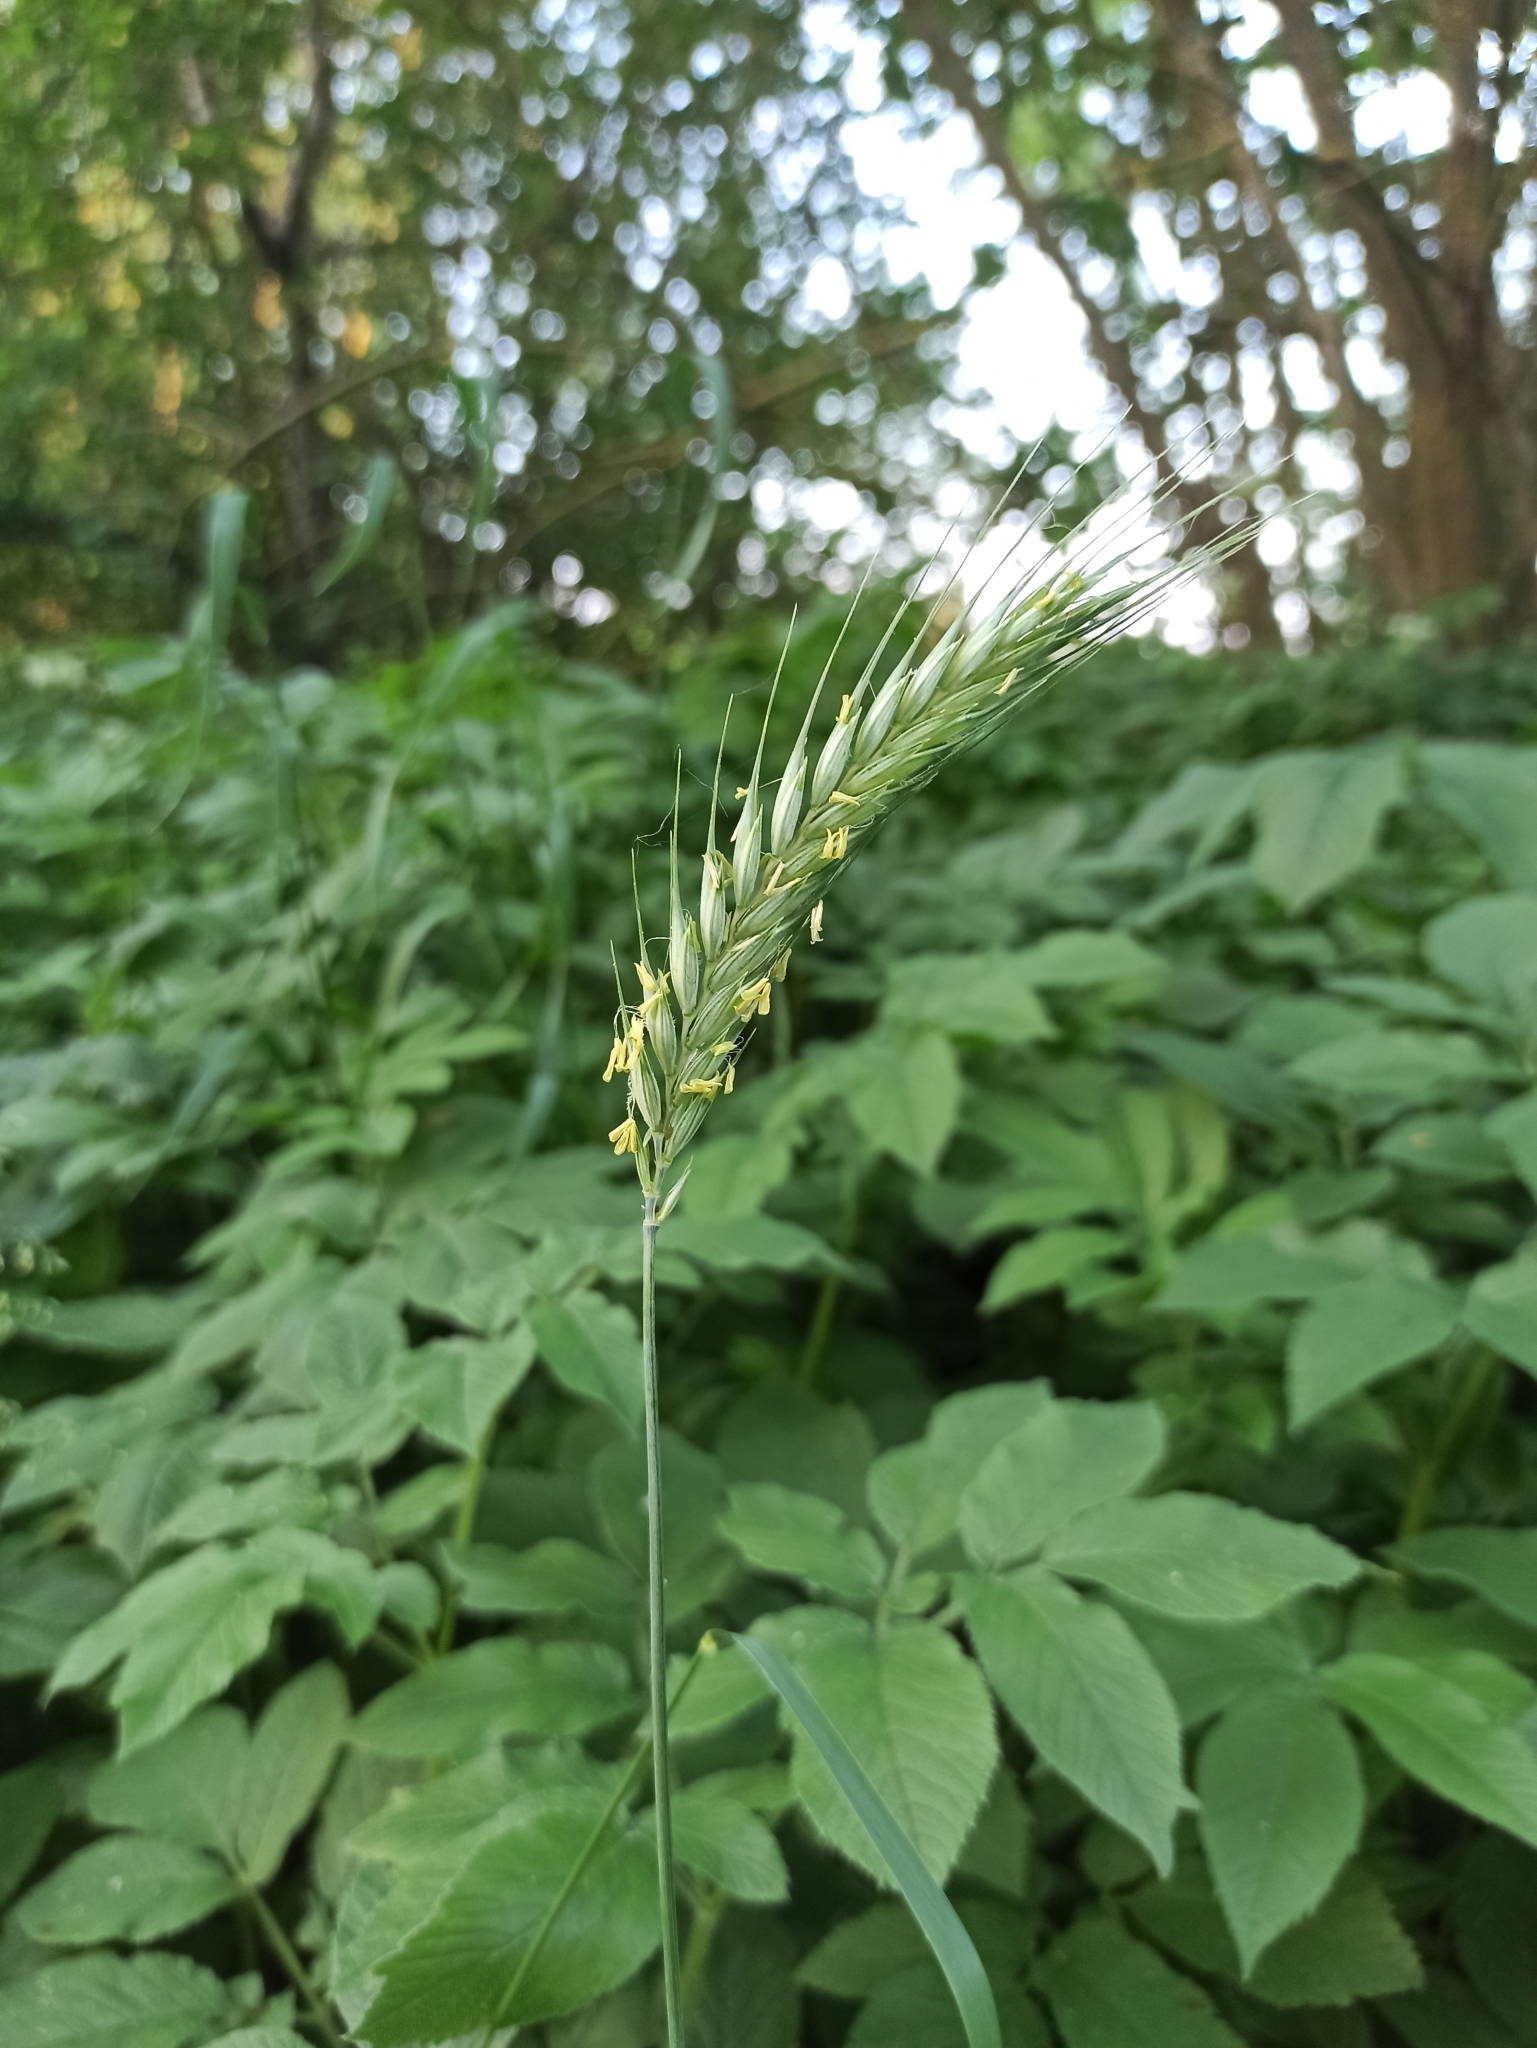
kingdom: Plantae
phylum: Tracheophyta
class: Liliopsida
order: Poales
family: Poaceae
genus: Secale
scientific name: Secale cereale
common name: Rye
